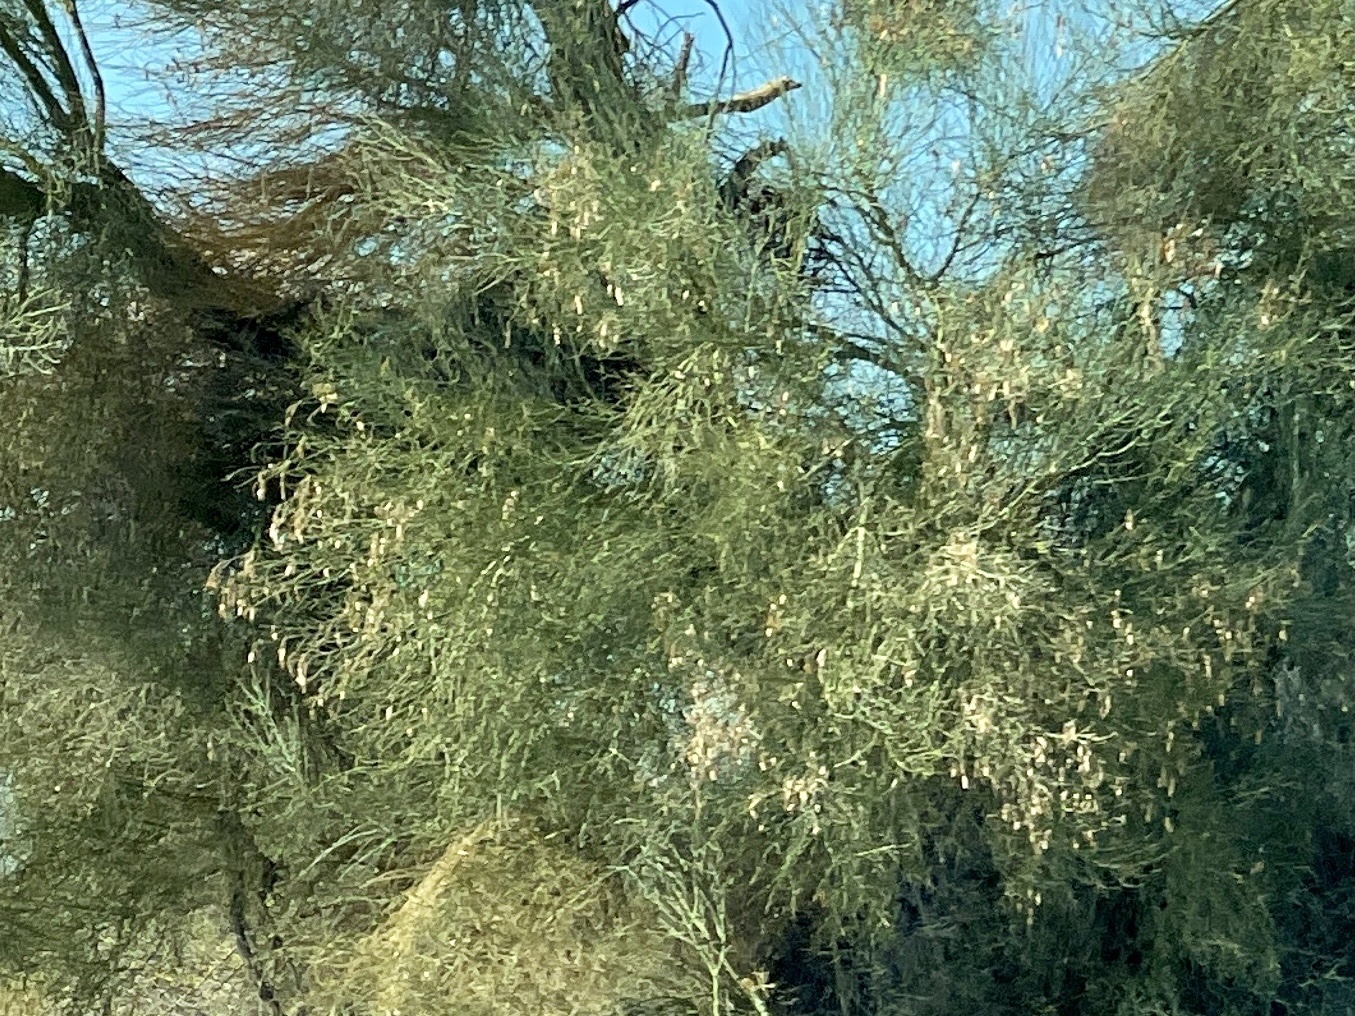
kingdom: Plantae
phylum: Tracheophyta
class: Magnoliopsida
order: Fabales
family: Fabaceae
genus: Parkinsonia
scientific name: Parkinsonia florida
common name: Blue paloverde
